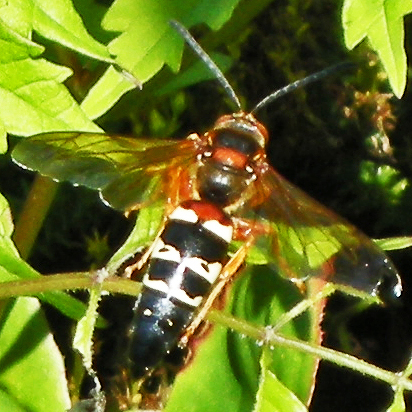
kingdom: Animalia
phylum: Arthropoda
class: Insecta
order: Hymenoptera
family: Crabronidae
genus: Sphecius
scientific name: Sphecius speciosus
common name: Cicada killer
